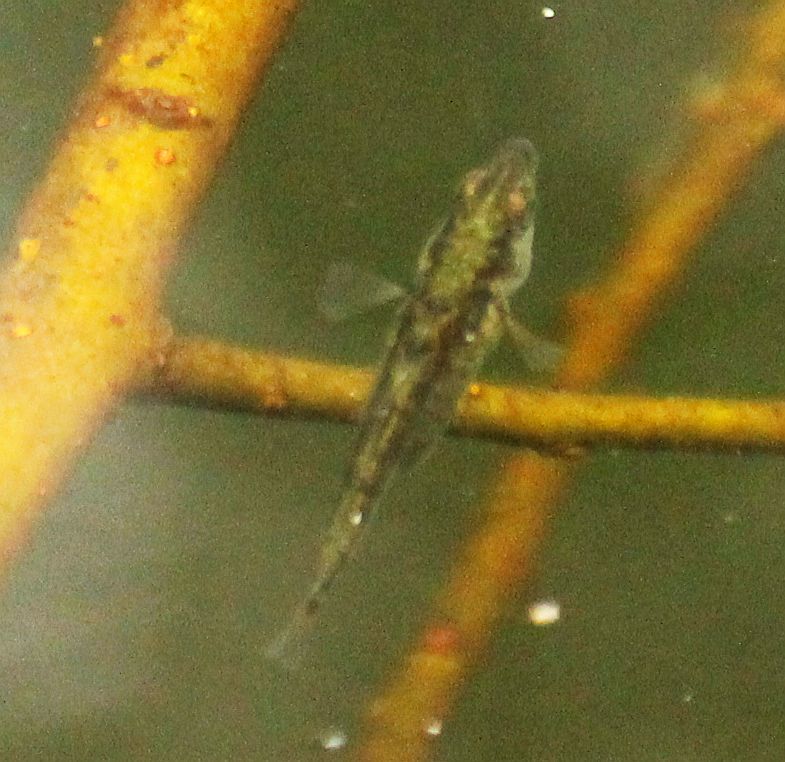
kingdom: Animalia
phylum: Chordata
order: Gasterosteiformes
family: Gasterosteidae
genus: Gasterosteus
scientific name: Gasterosteus aculeatus
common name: Three-spined stickleback
